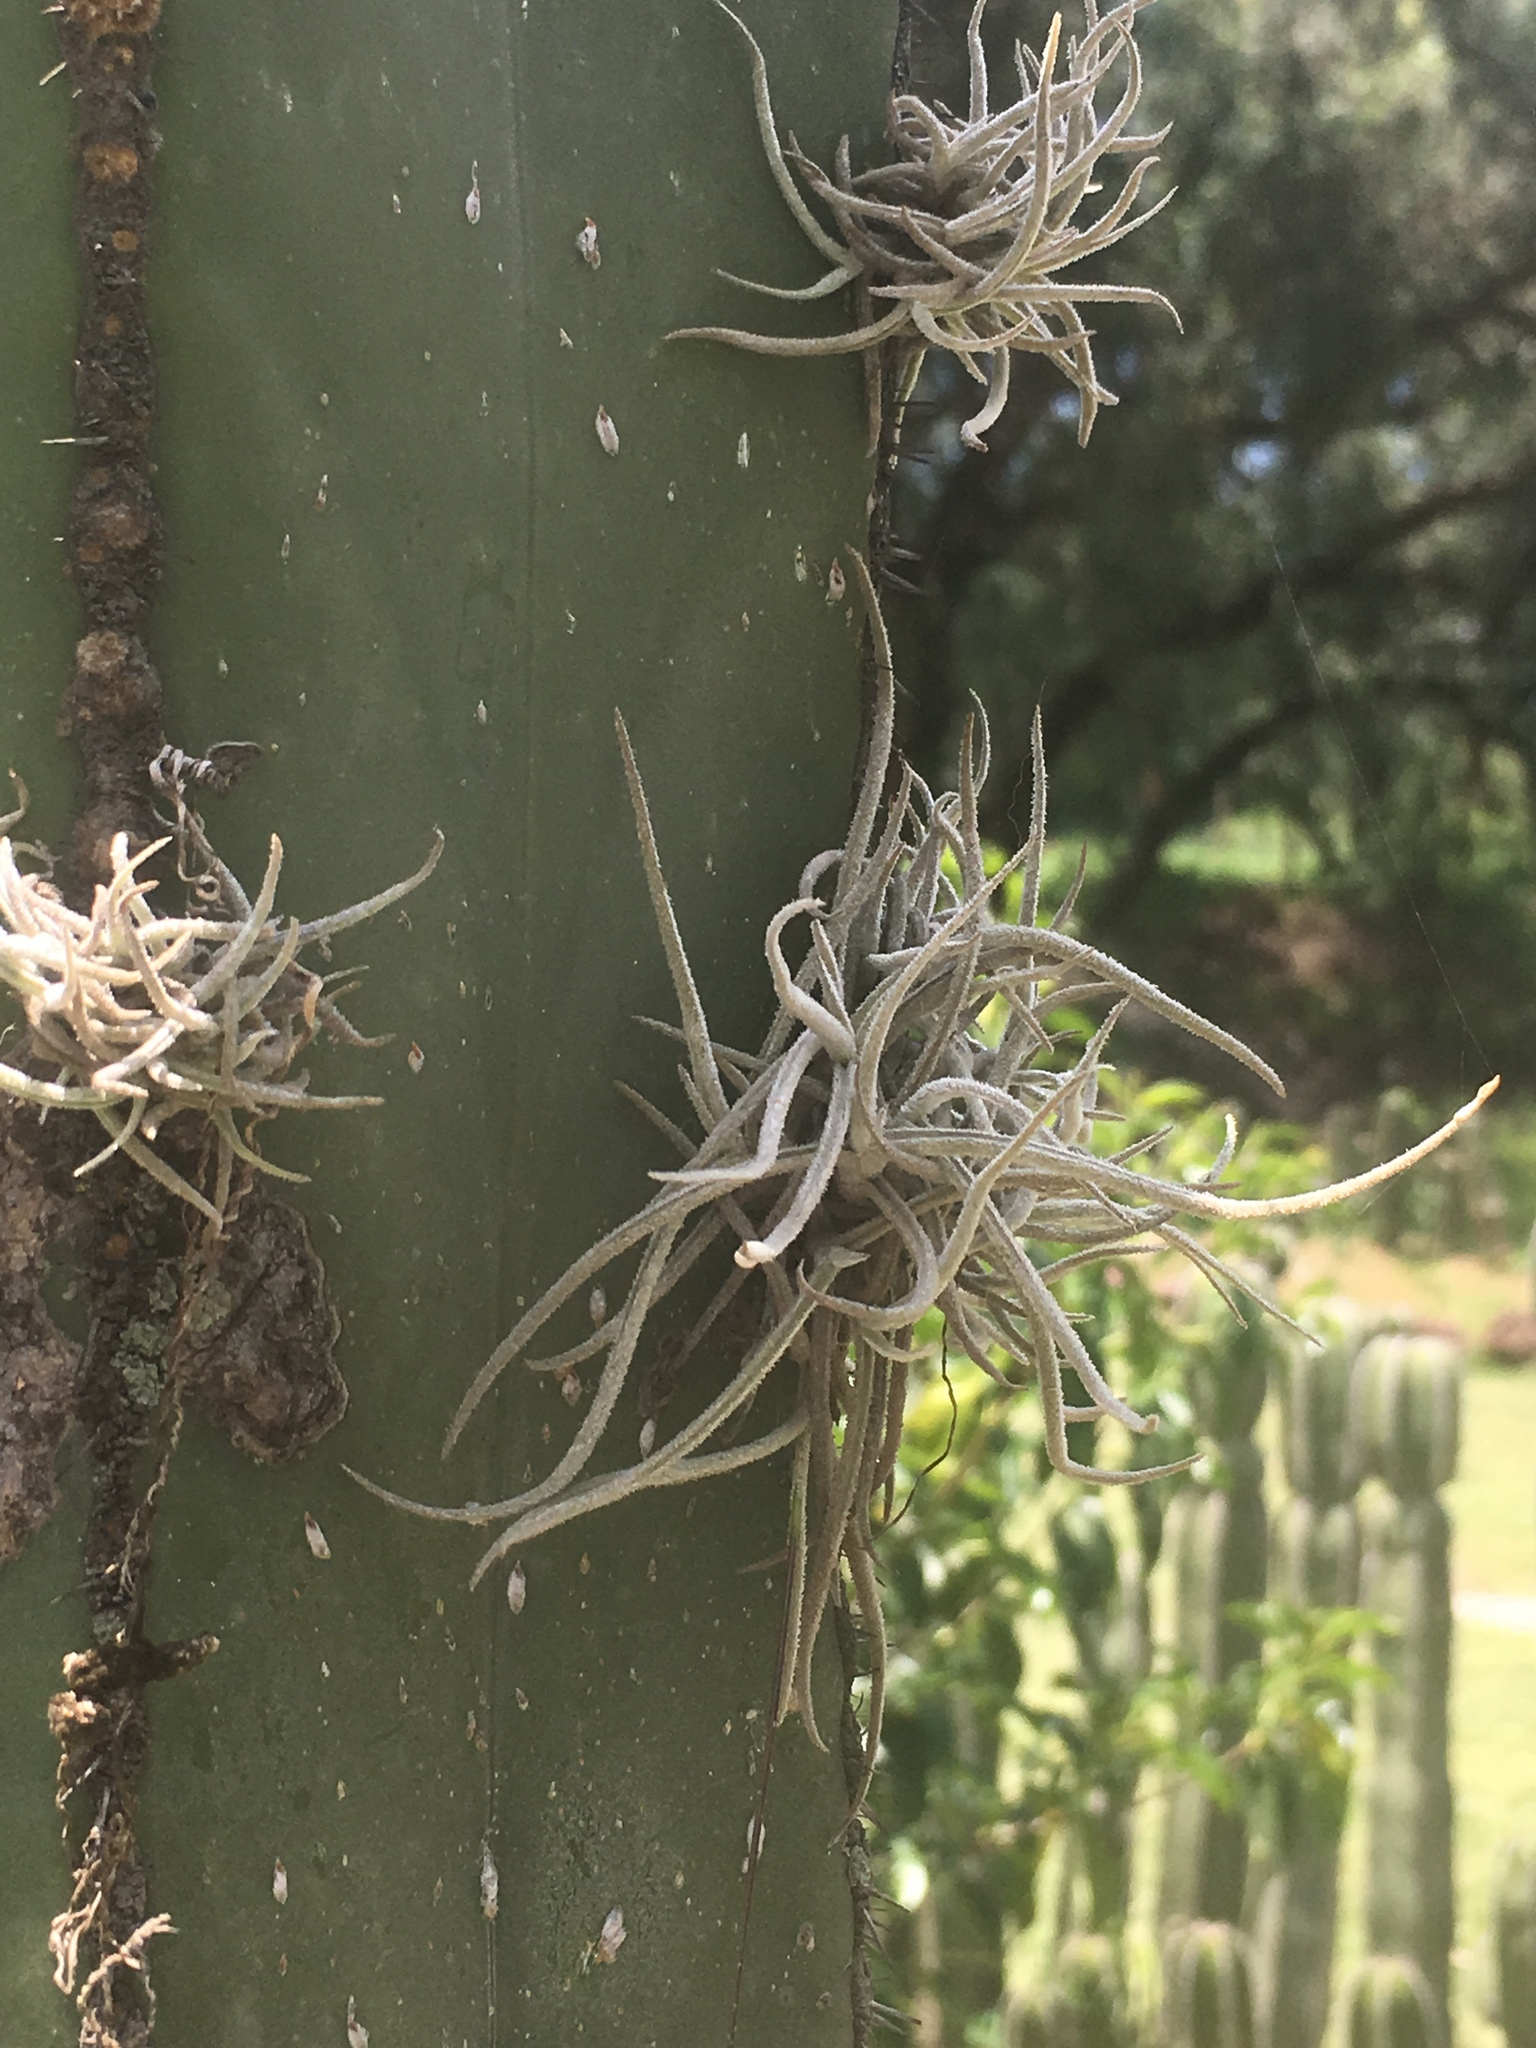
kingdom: Plantae
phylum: Tracheophyta
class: Liliopsida
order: Poales
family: Bromeliaceae
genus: Tillandsia
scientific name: Tillandsia recurvata
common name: Small ballmoss
